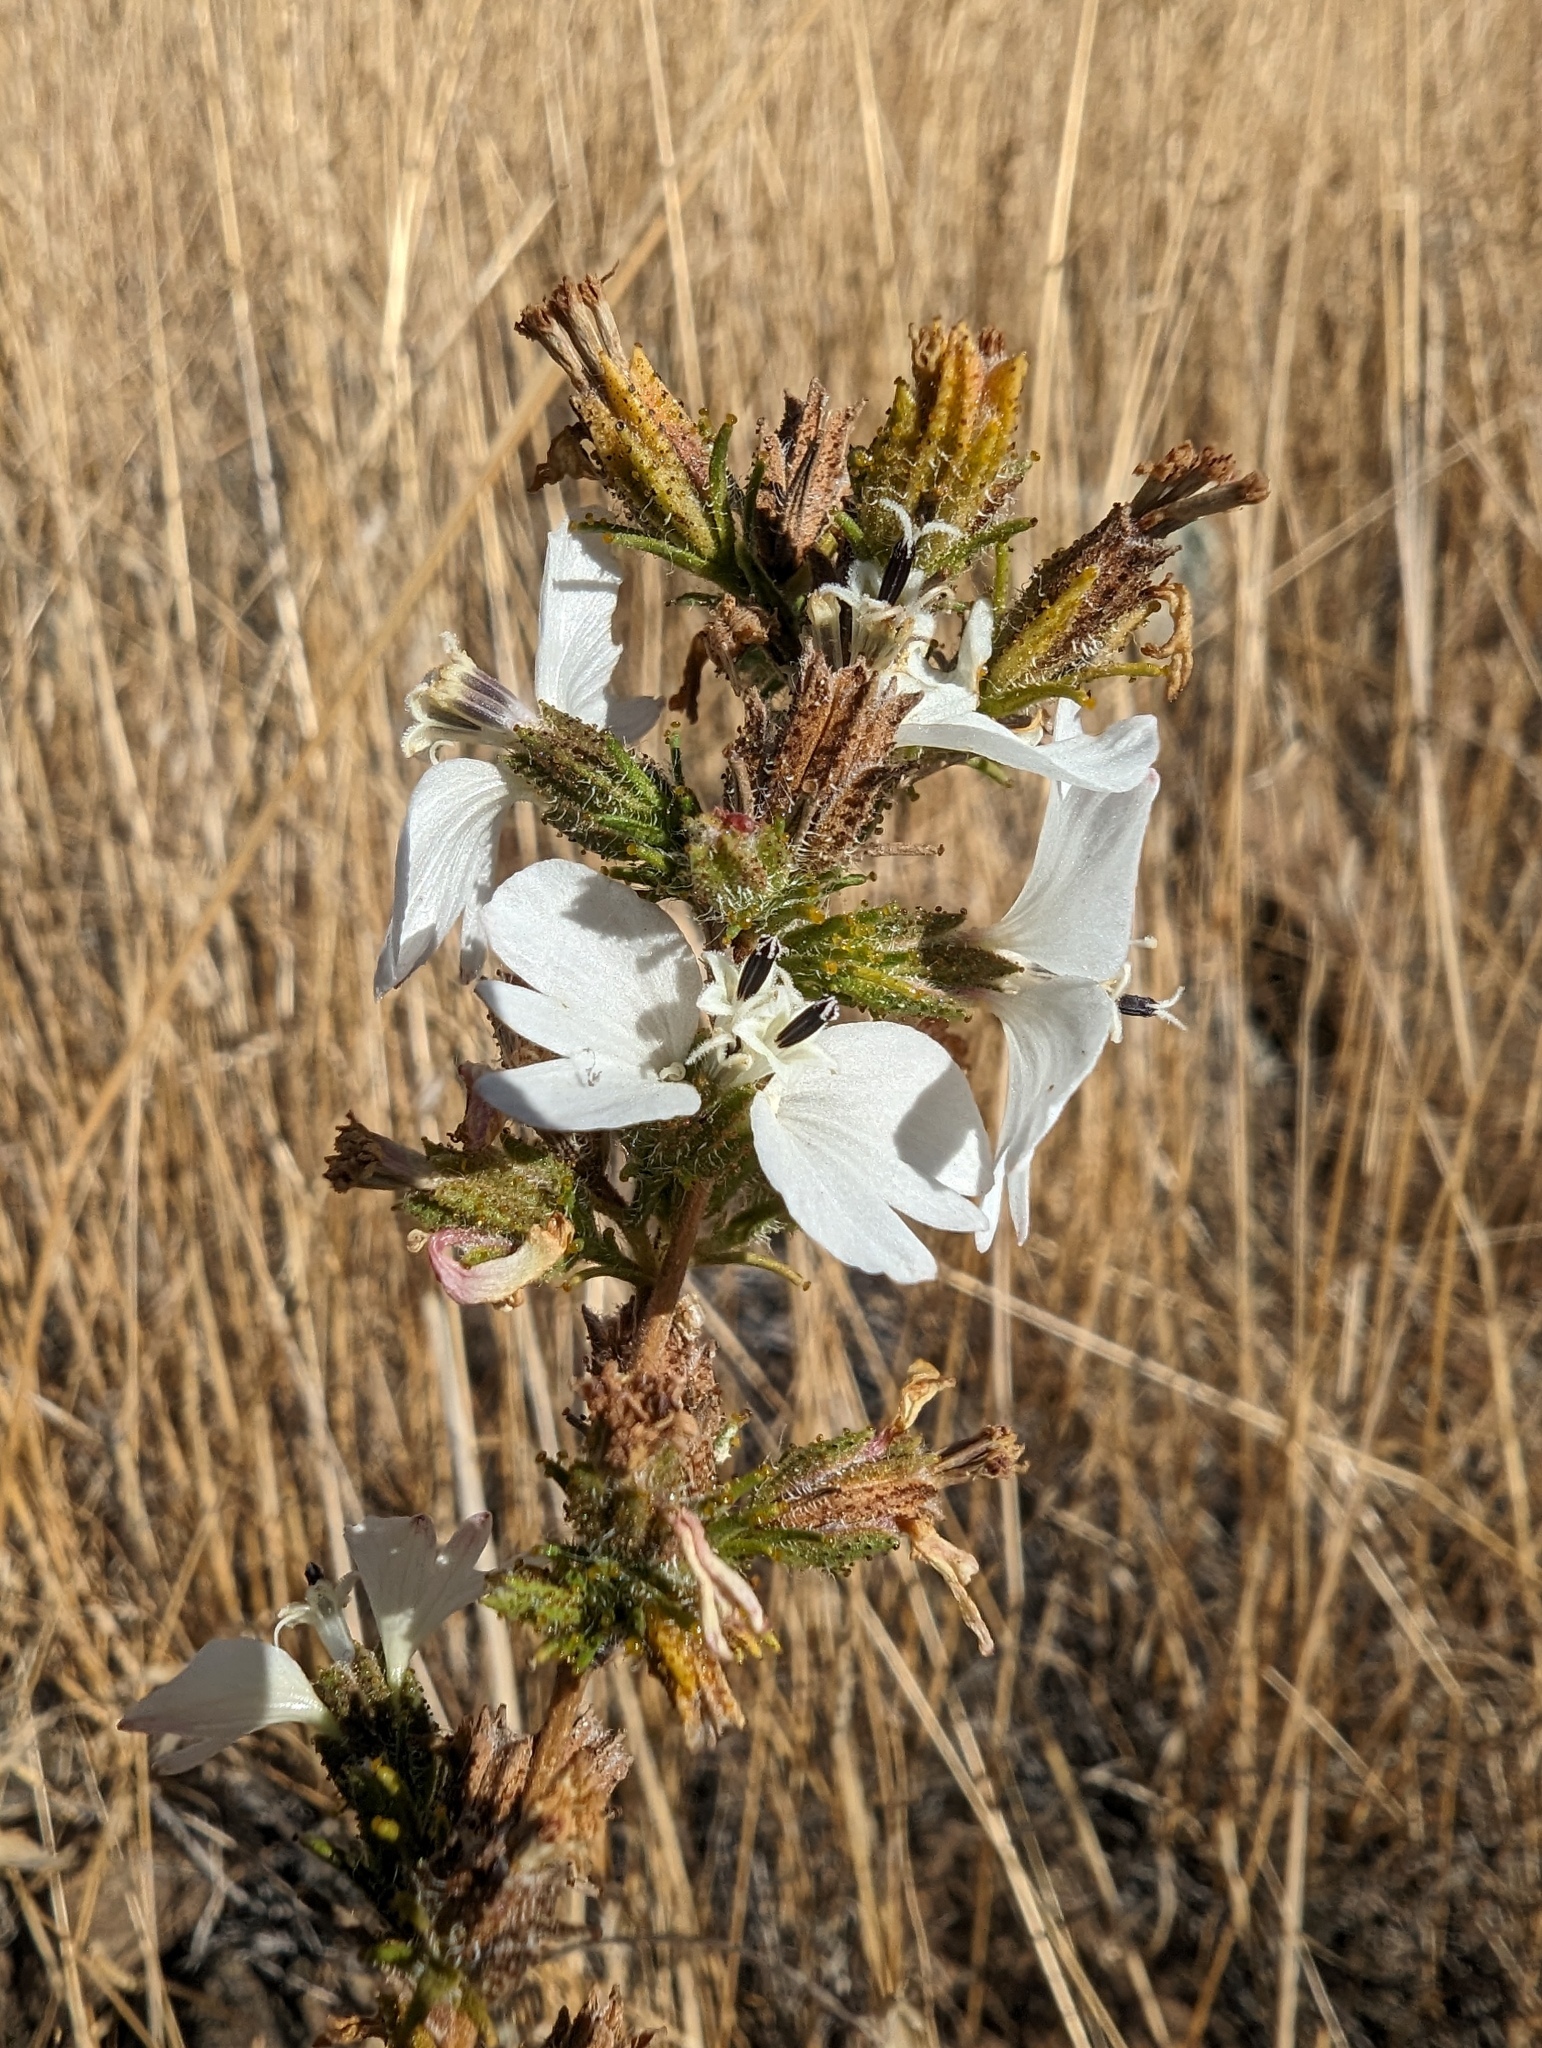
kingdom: Plantae
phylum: Tracheophyta
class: Magnoliopsida
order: Asterales
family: Asteraceae
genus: Calycadenia
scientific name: Calycadenia multiglandulosa
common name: Sticky calycadenia
